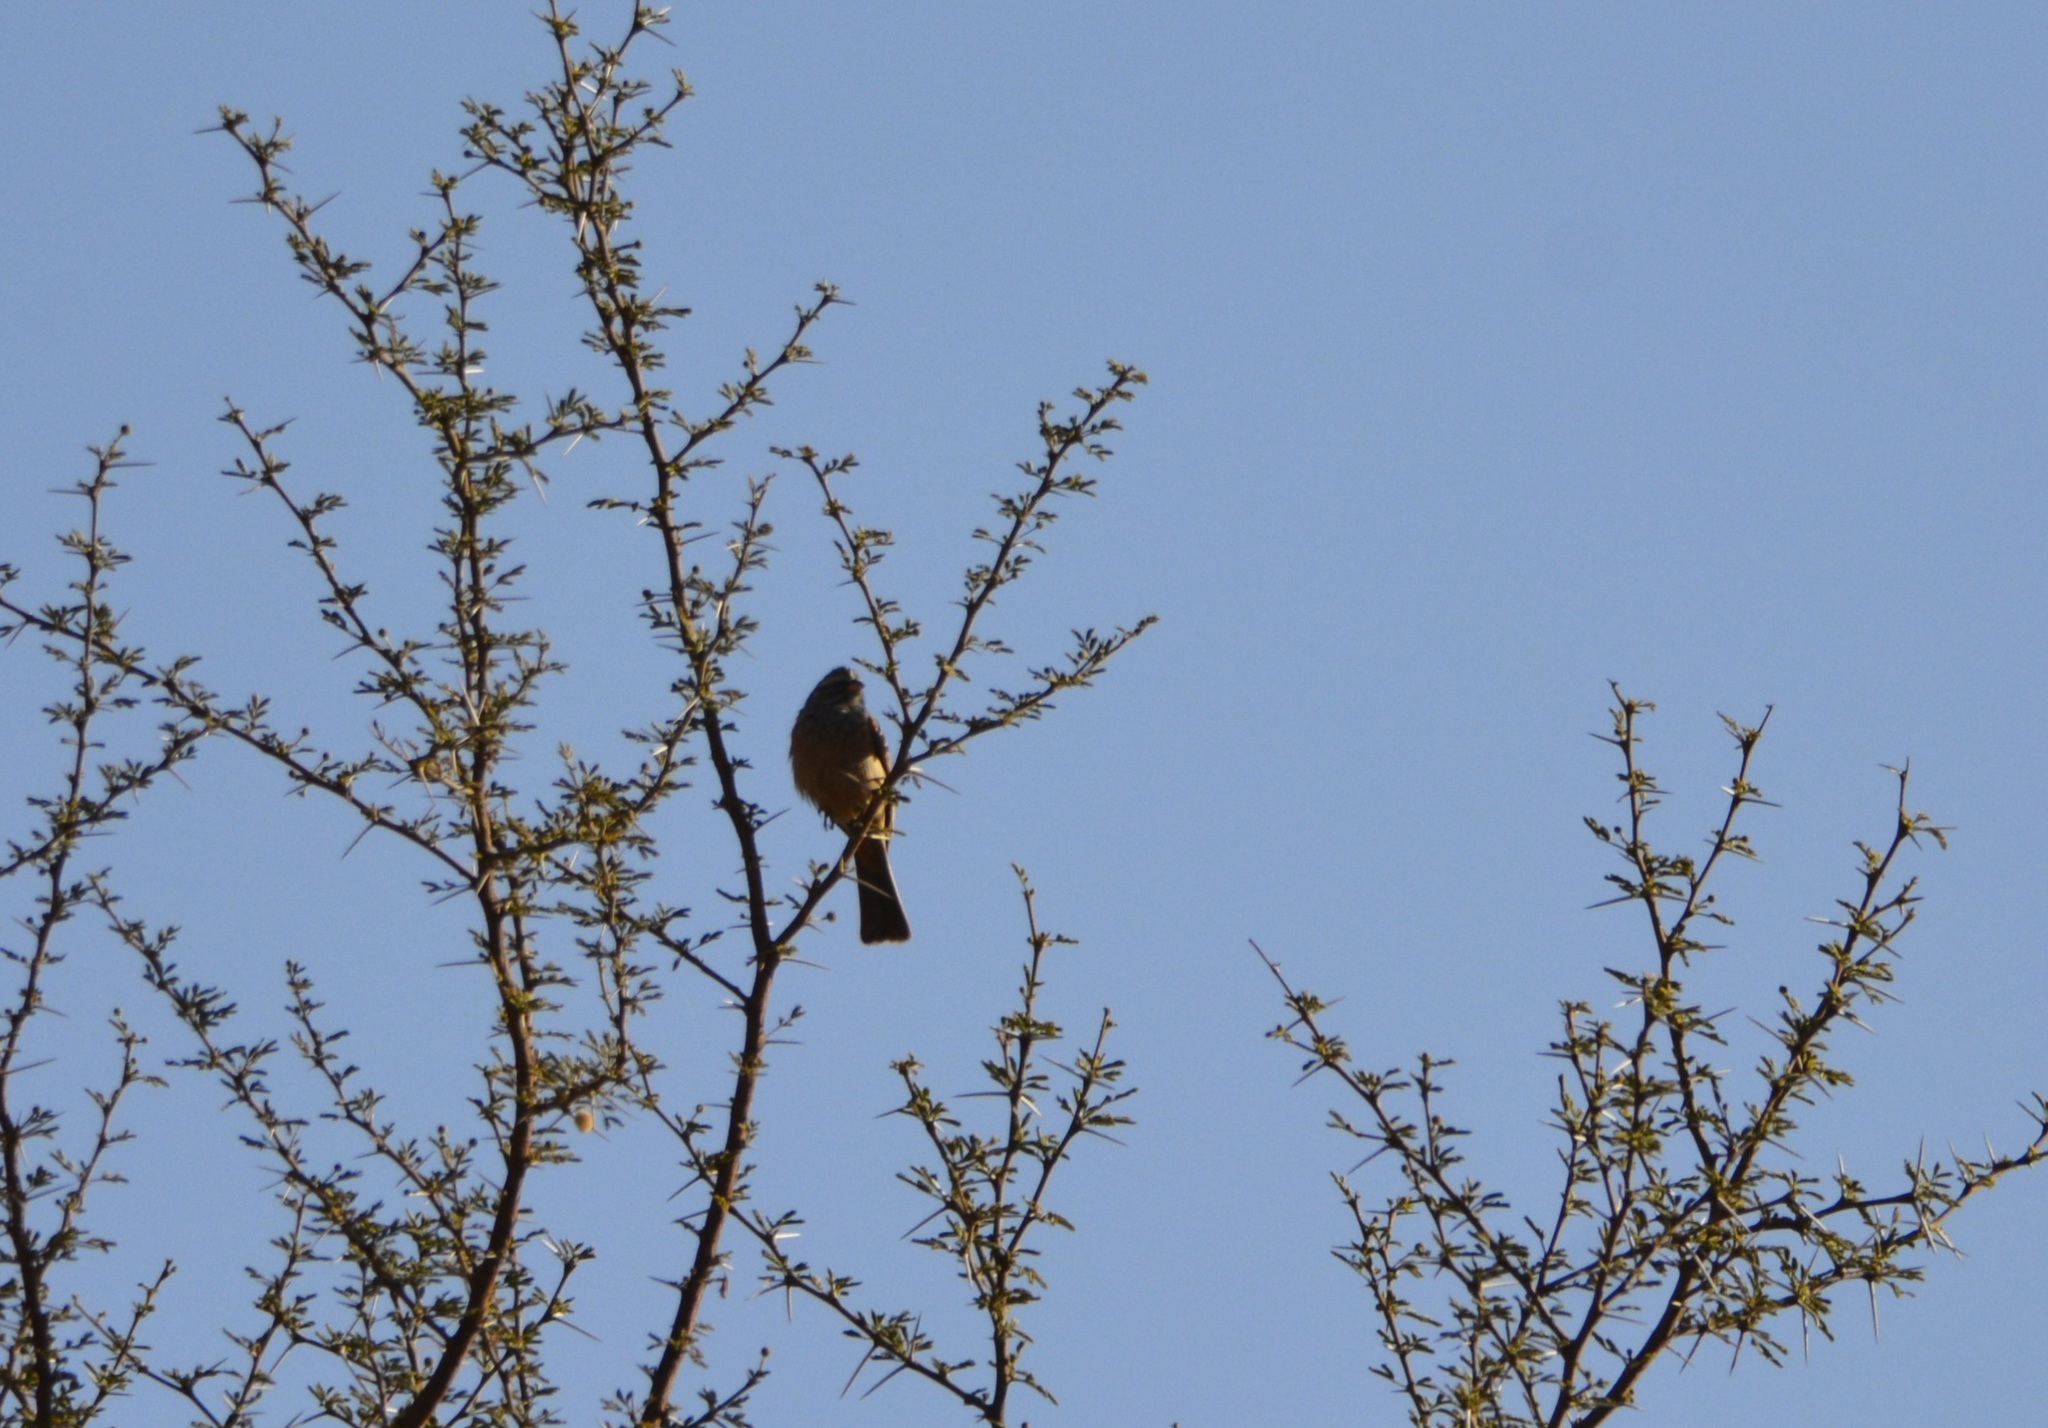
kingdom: Animalia
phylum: Chordata
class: Aves
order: Passeriformes
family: Emberizidae
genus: Emberiza
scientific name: Emberiza sahari
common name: House bunting
